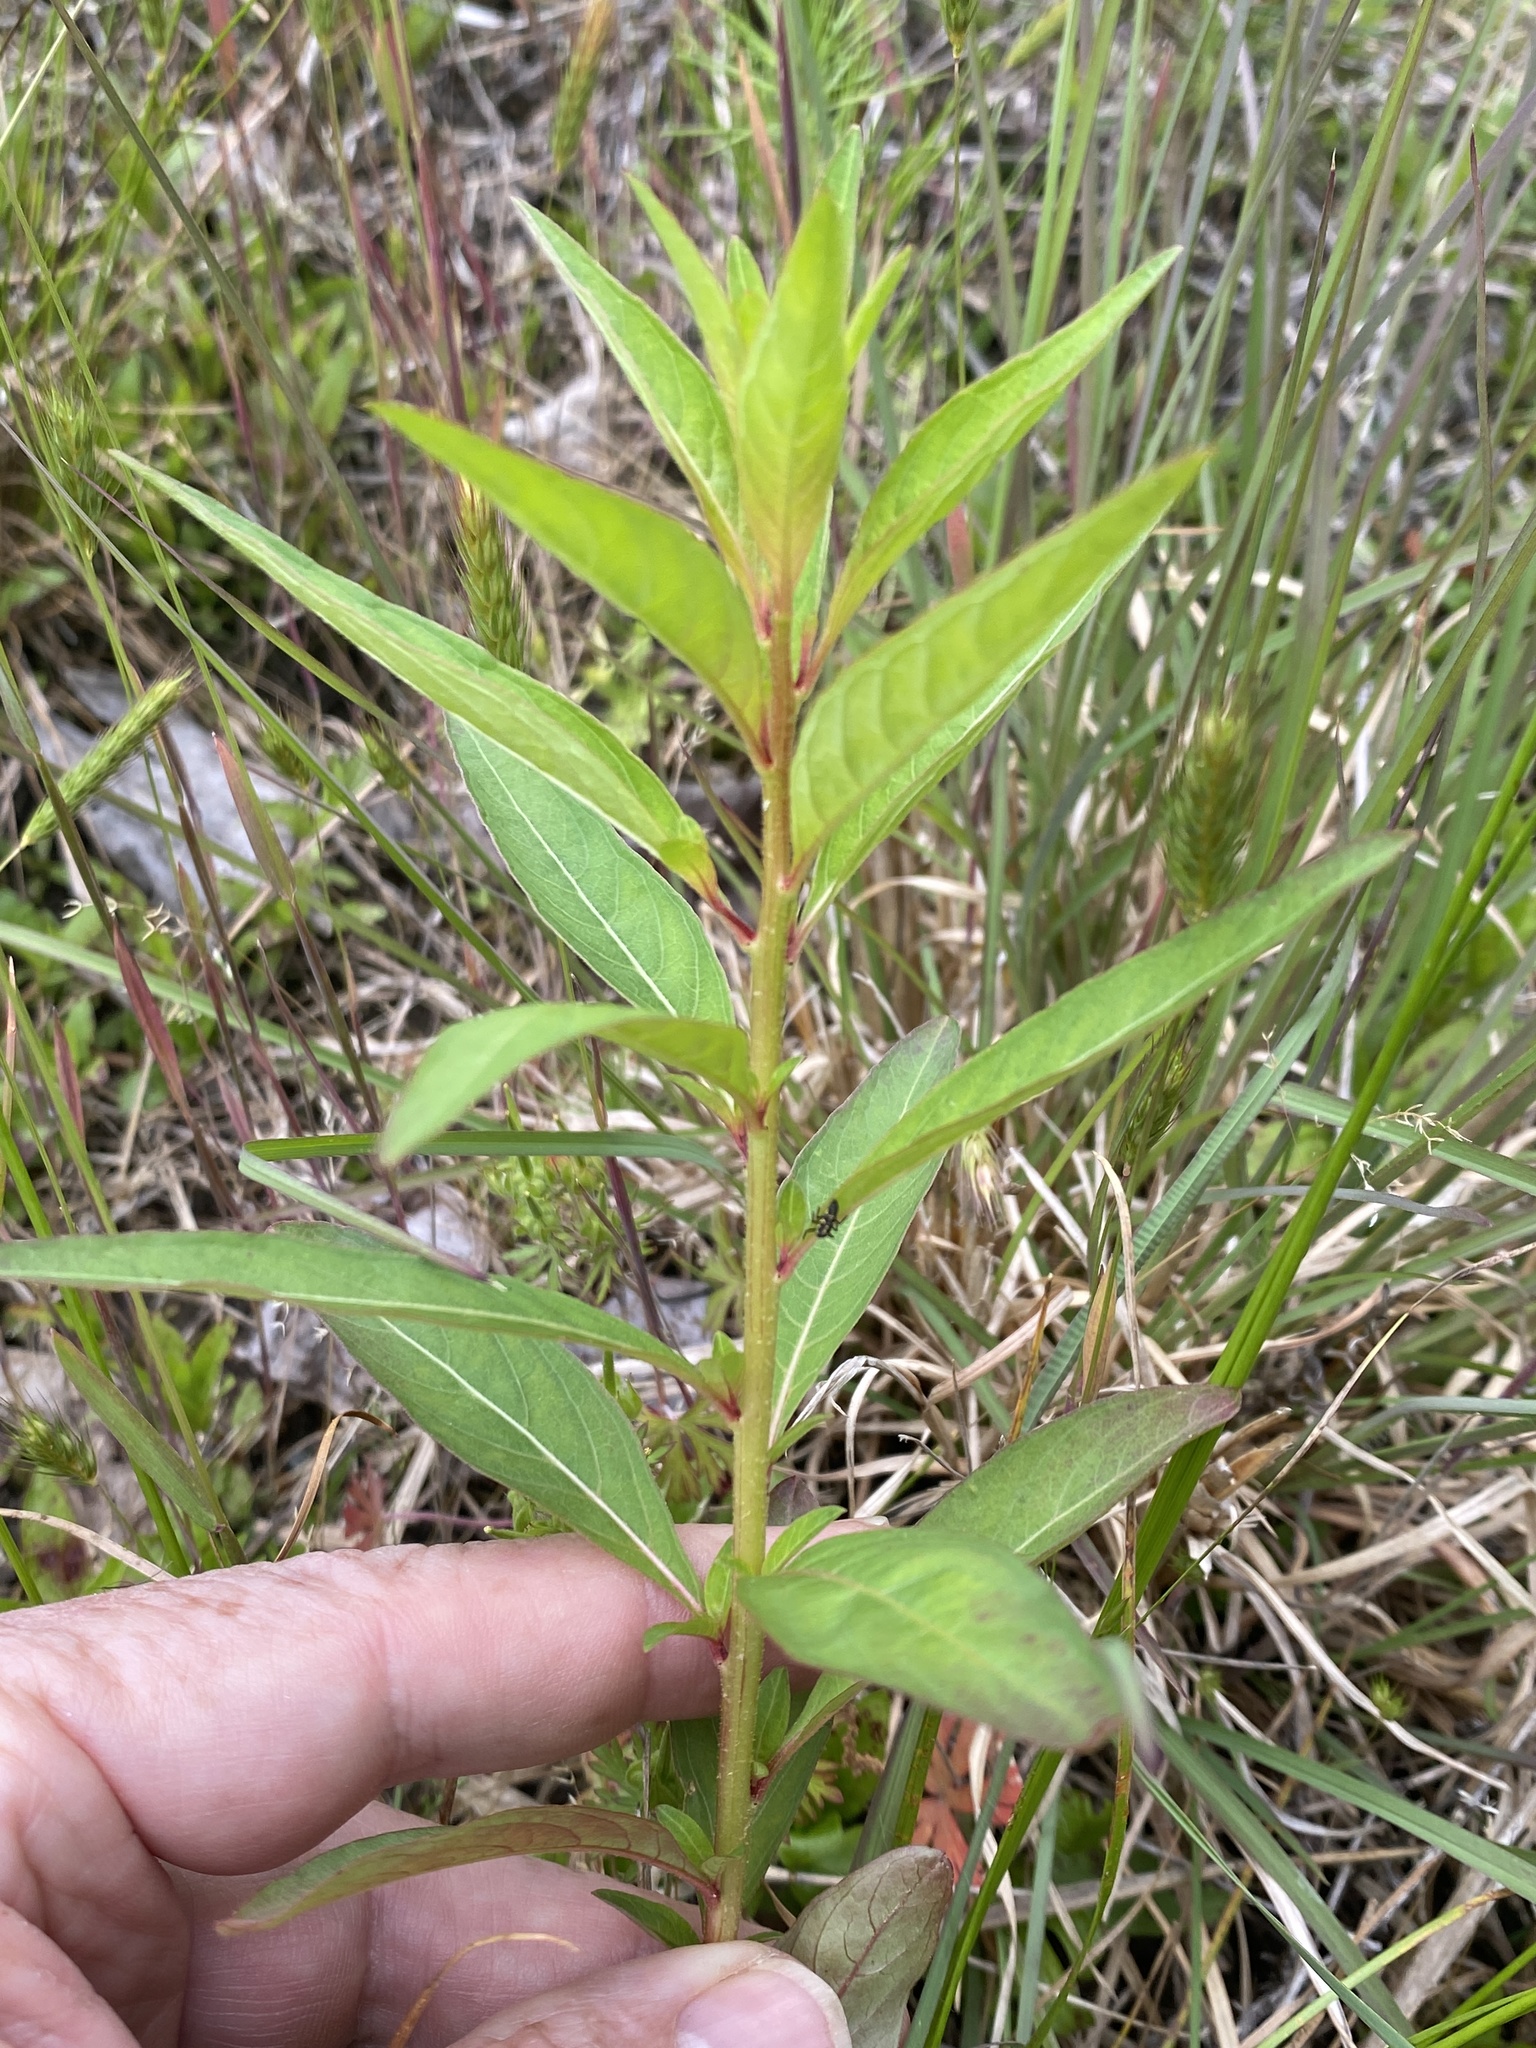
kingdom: Plantae
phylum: Tracheophyta
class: Magnoliopsida
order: Myrtales
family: Onagraceae
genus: Ludwigia
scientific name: Ludwigia alternifolia
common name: Rattlebox
